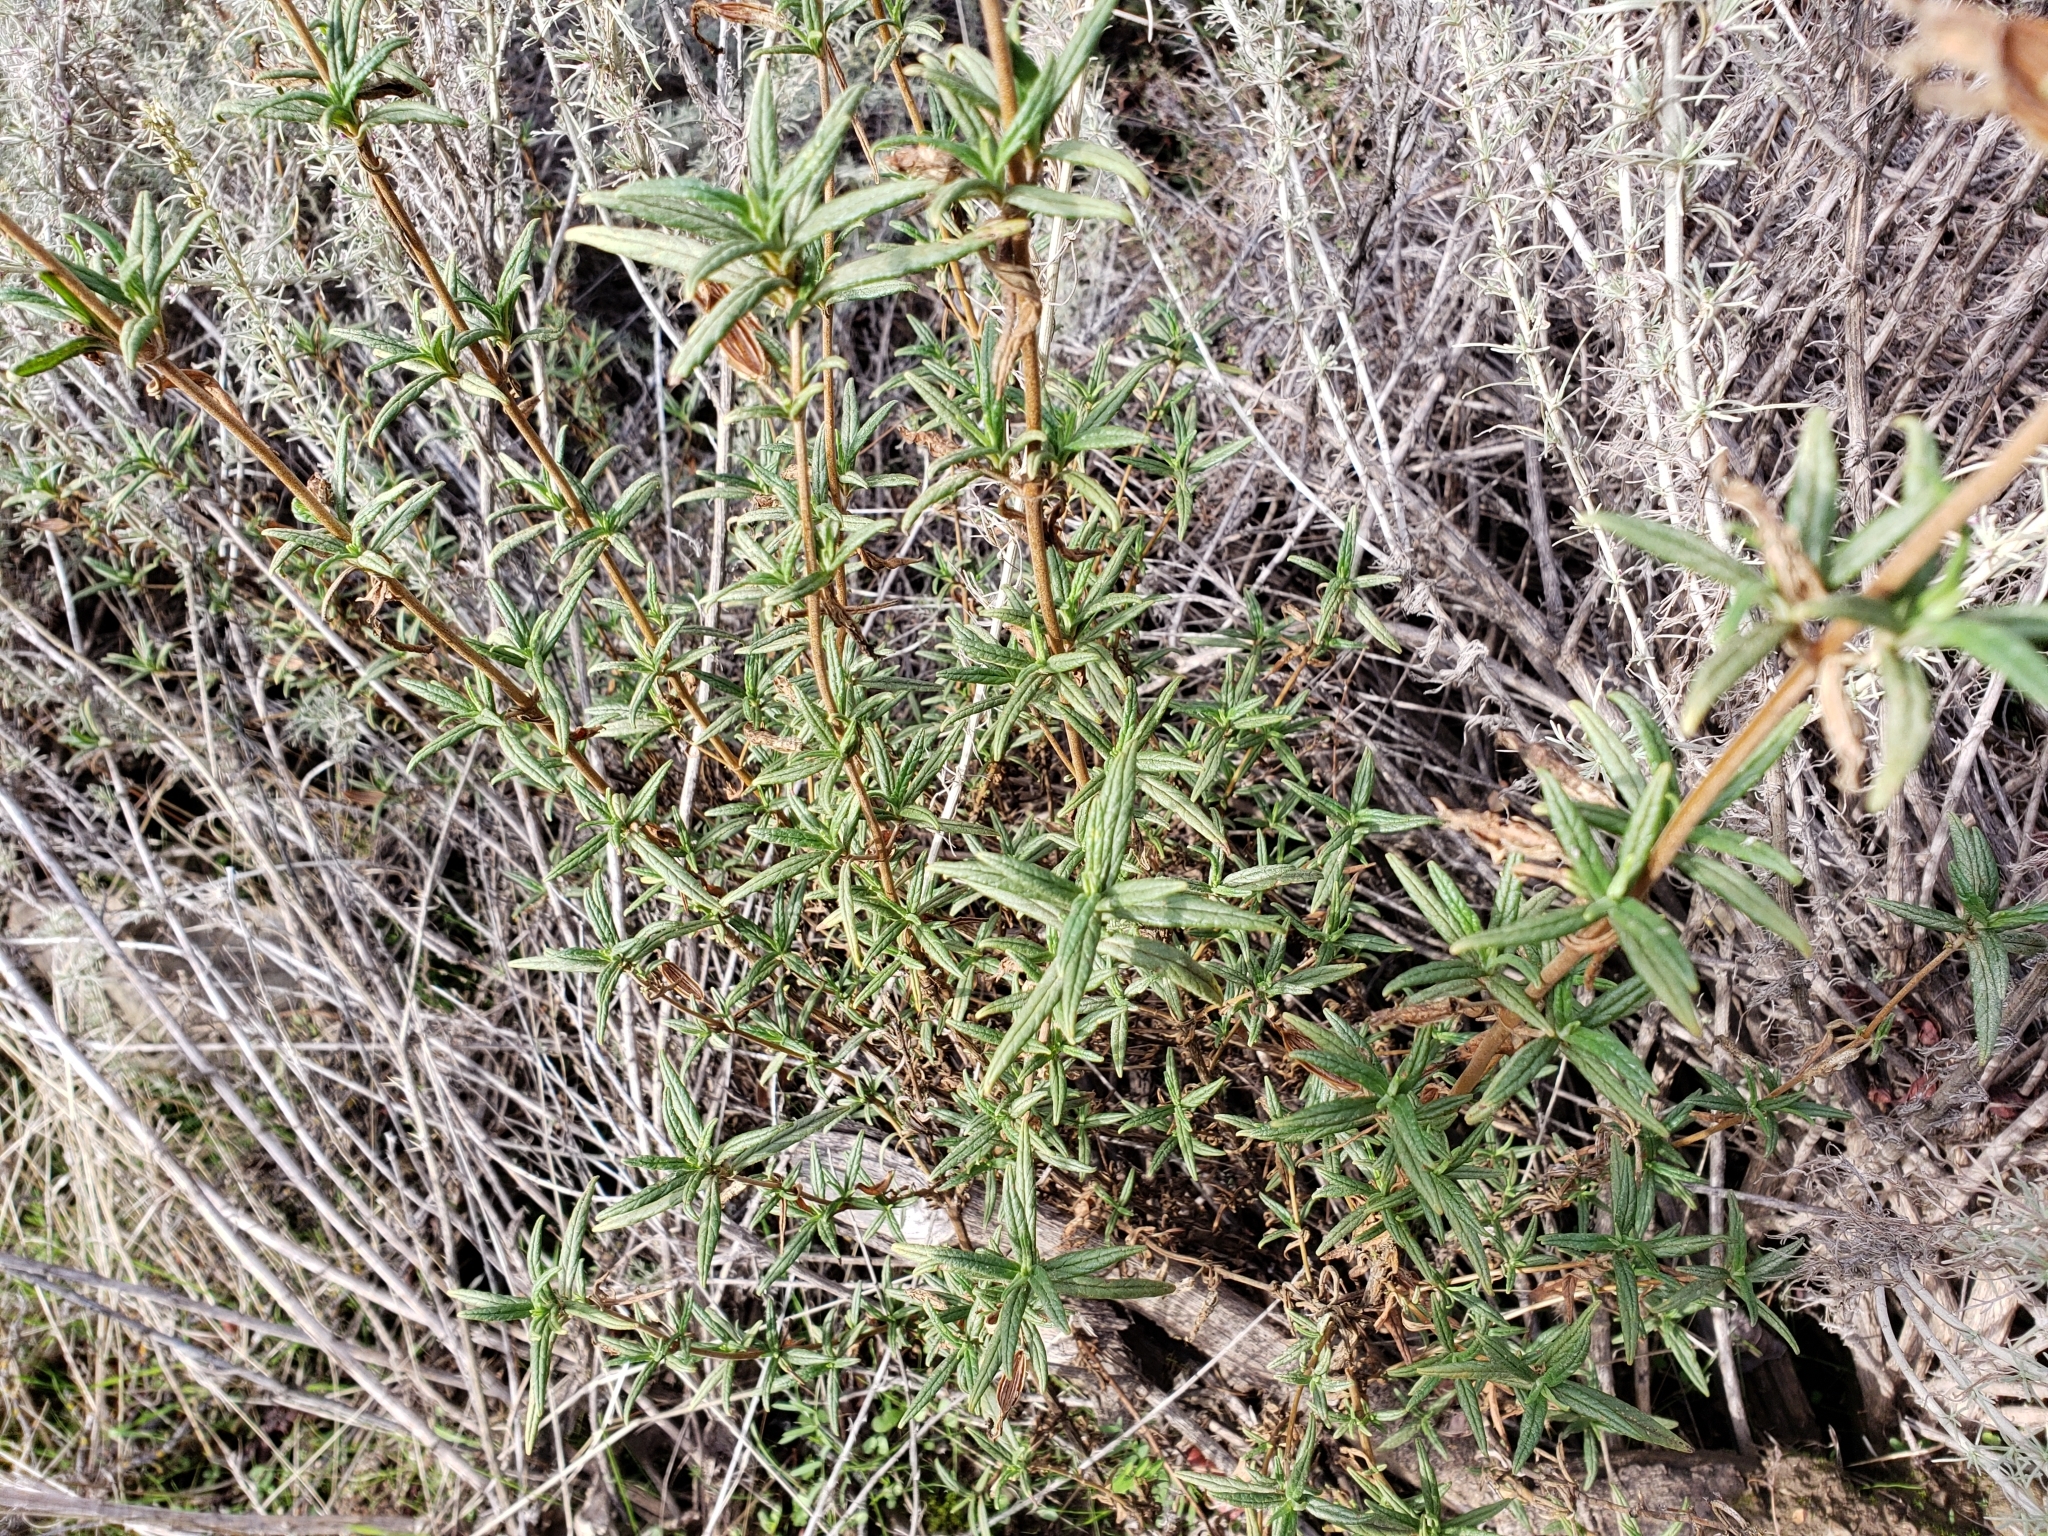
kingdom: Plantae
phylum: Tracheophyta
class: Magnoliopsida
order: Lamiales
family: Phrymaceae
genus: Diplacus
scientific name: Diplacus aurantiacus
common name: Bush monkey-flower
